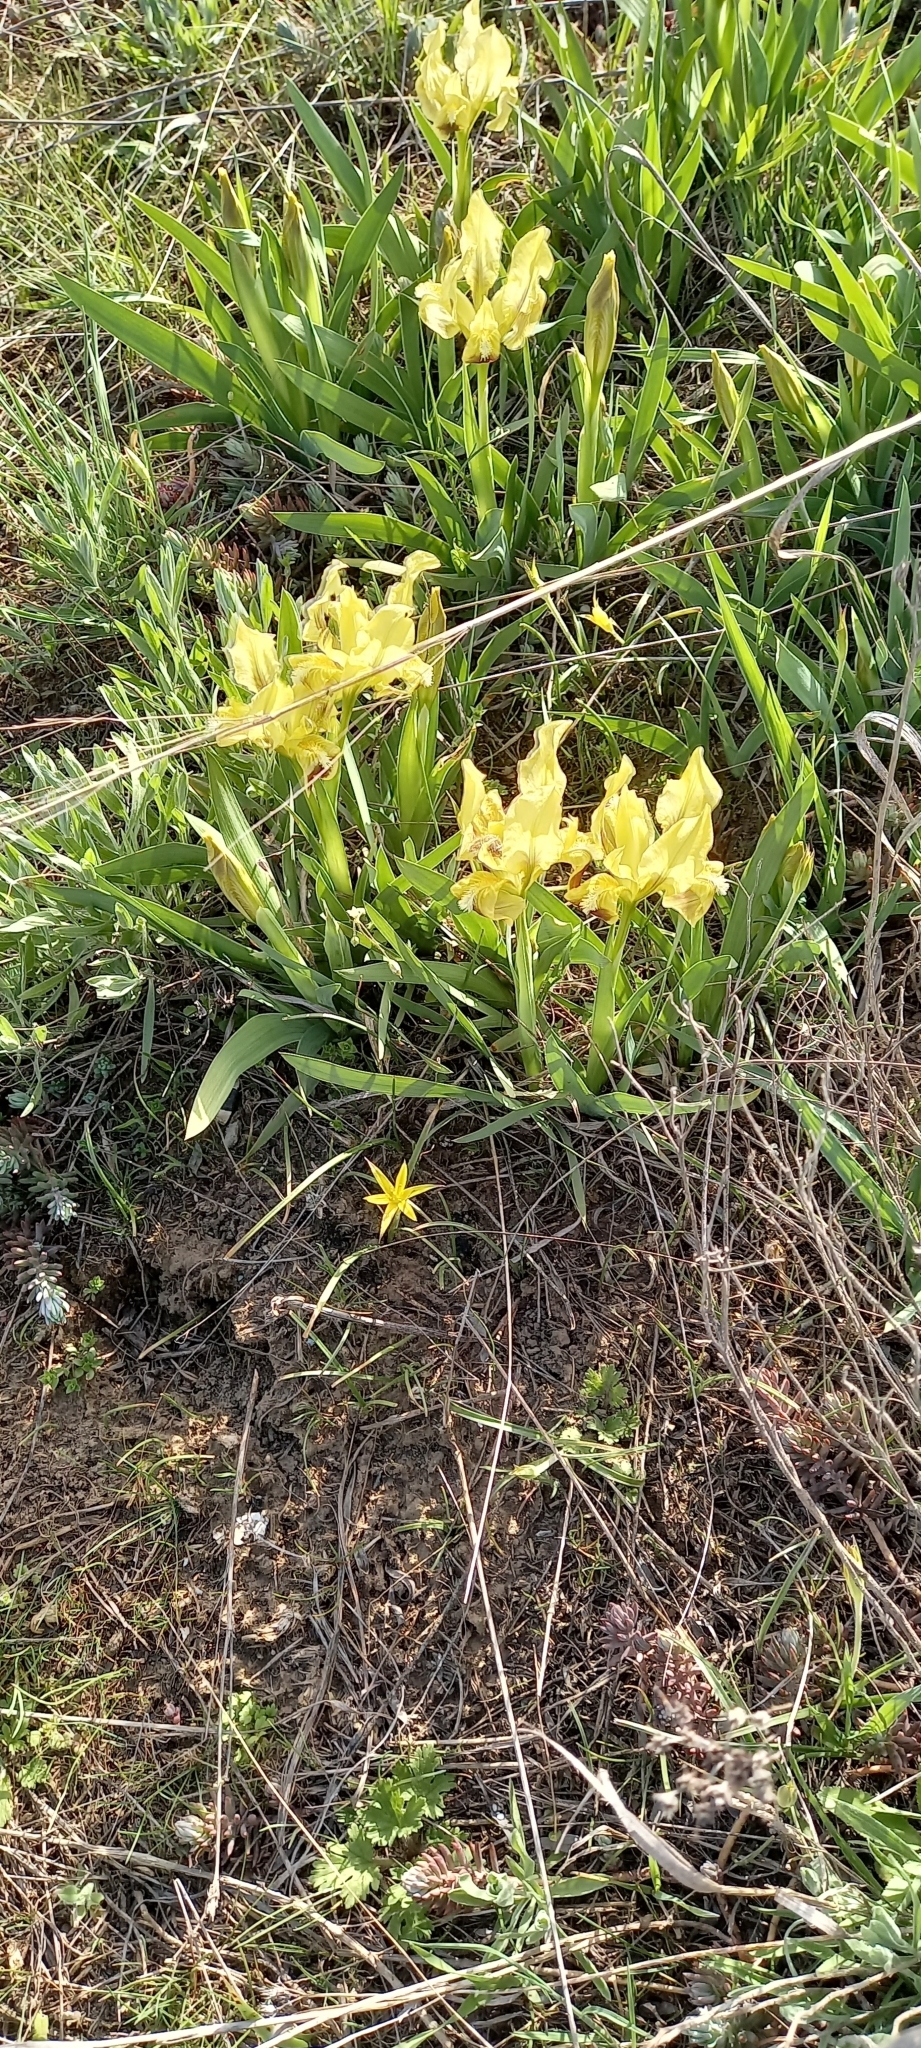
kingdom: Plantae
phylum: Tracheophyta
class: Liliopsida
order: Asparagales
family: Iridaceae
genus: Iris
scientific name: Iris pumila
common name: Dwarf iris
